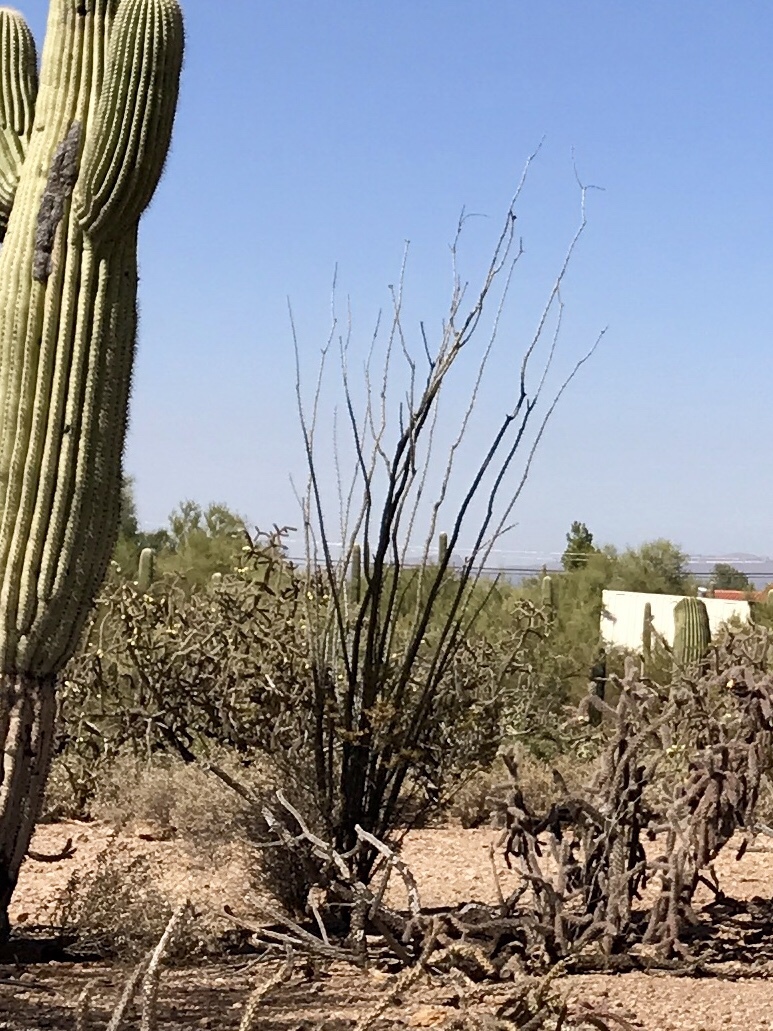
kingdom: Plantae
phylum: Tracheophyta
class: Magnoliopsida
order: Ericales
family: Fouquieriaceae
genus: Fouquieria
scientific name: Fouquieria splendens
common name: Vine-cactus
